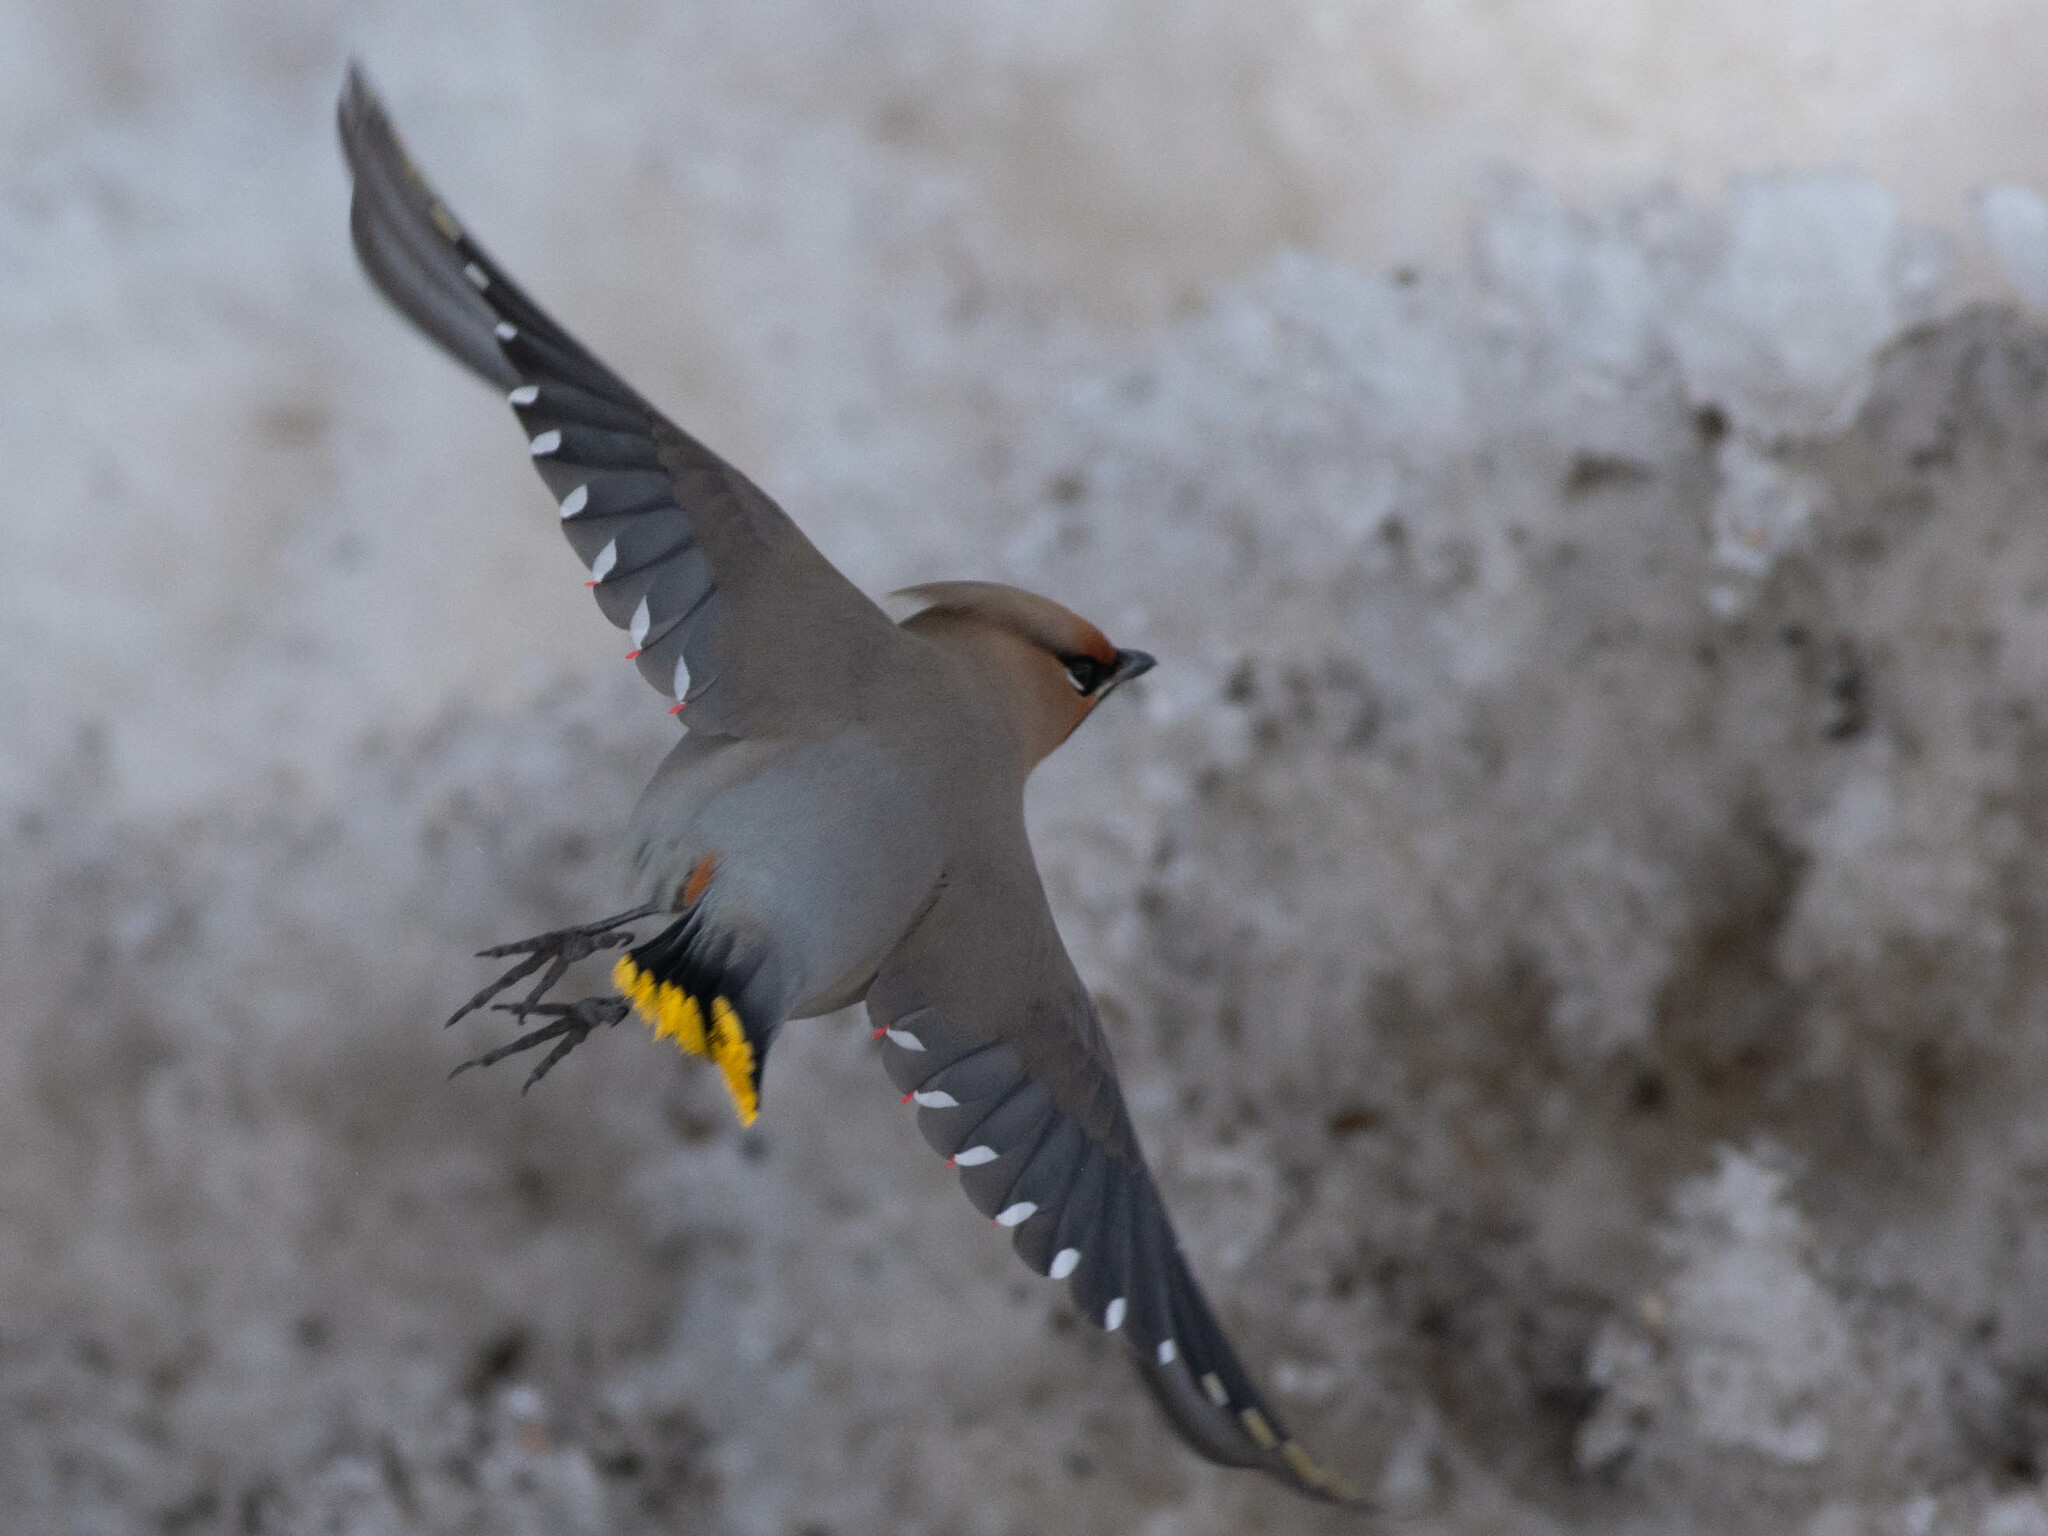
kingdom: Animalia
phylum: Chordata
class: Aves
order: Passeriformes
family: Bombycillidae
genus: Bombycilla
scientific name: Bombycilla garrulus
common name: Bohemian waxwing
